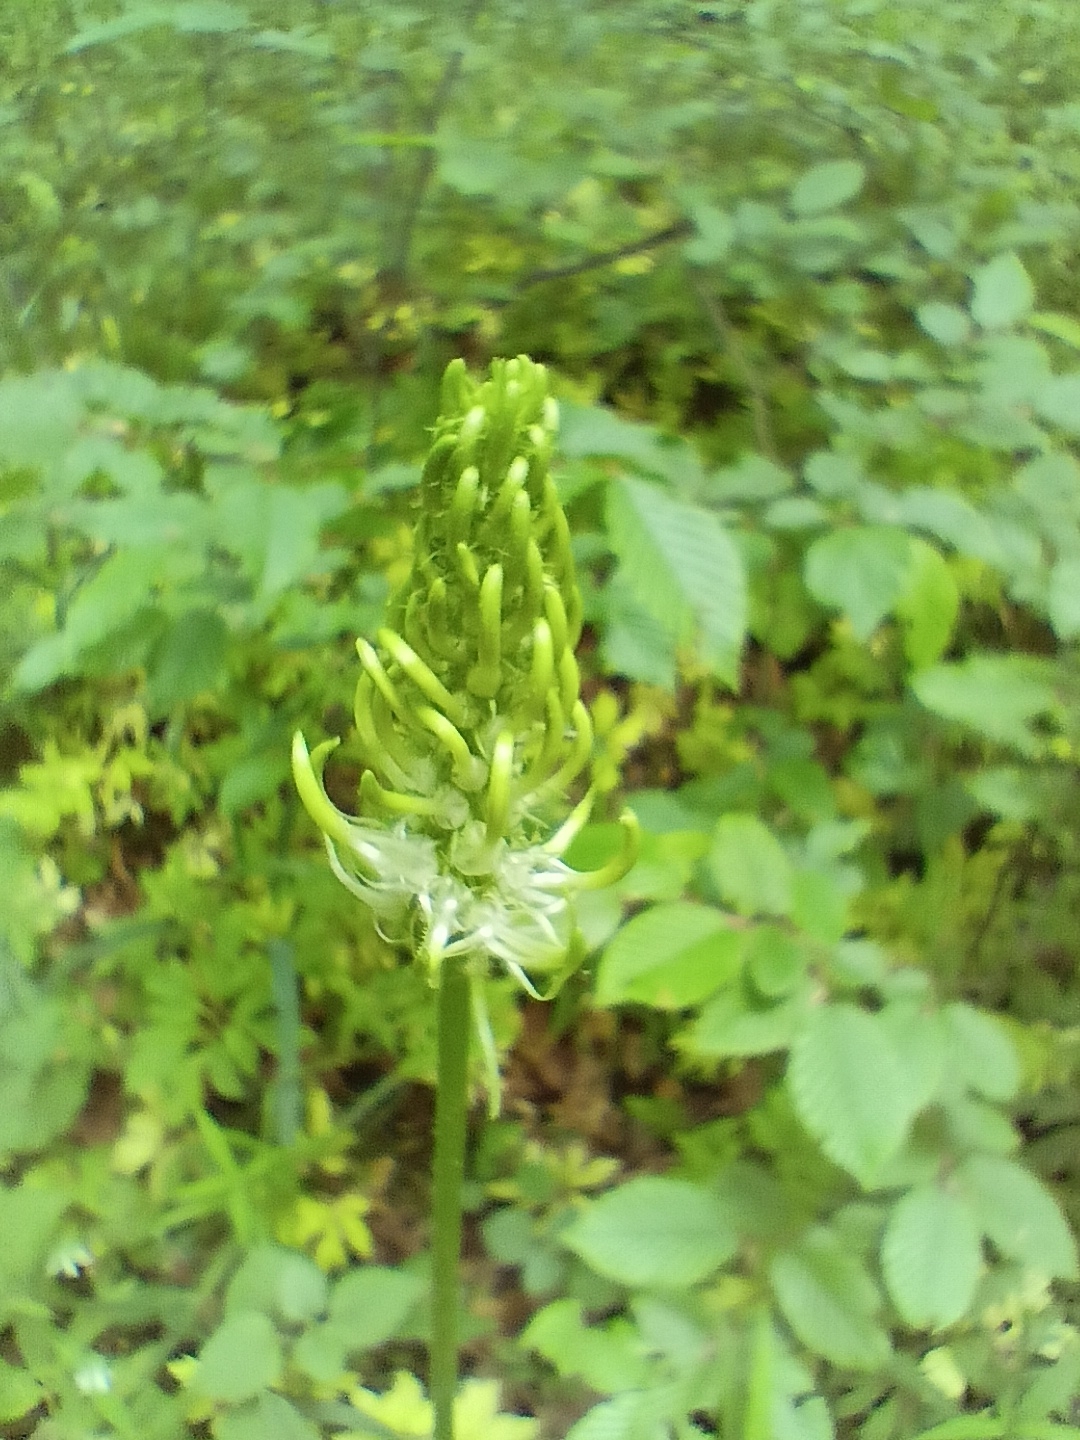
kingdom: Plantae
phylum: Tracheophyta
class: Magnoliopsida
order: Asterales
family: Campanulaceae
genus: Phyteuma
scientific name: Phyteuma spicatum
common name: Spiked rampion
